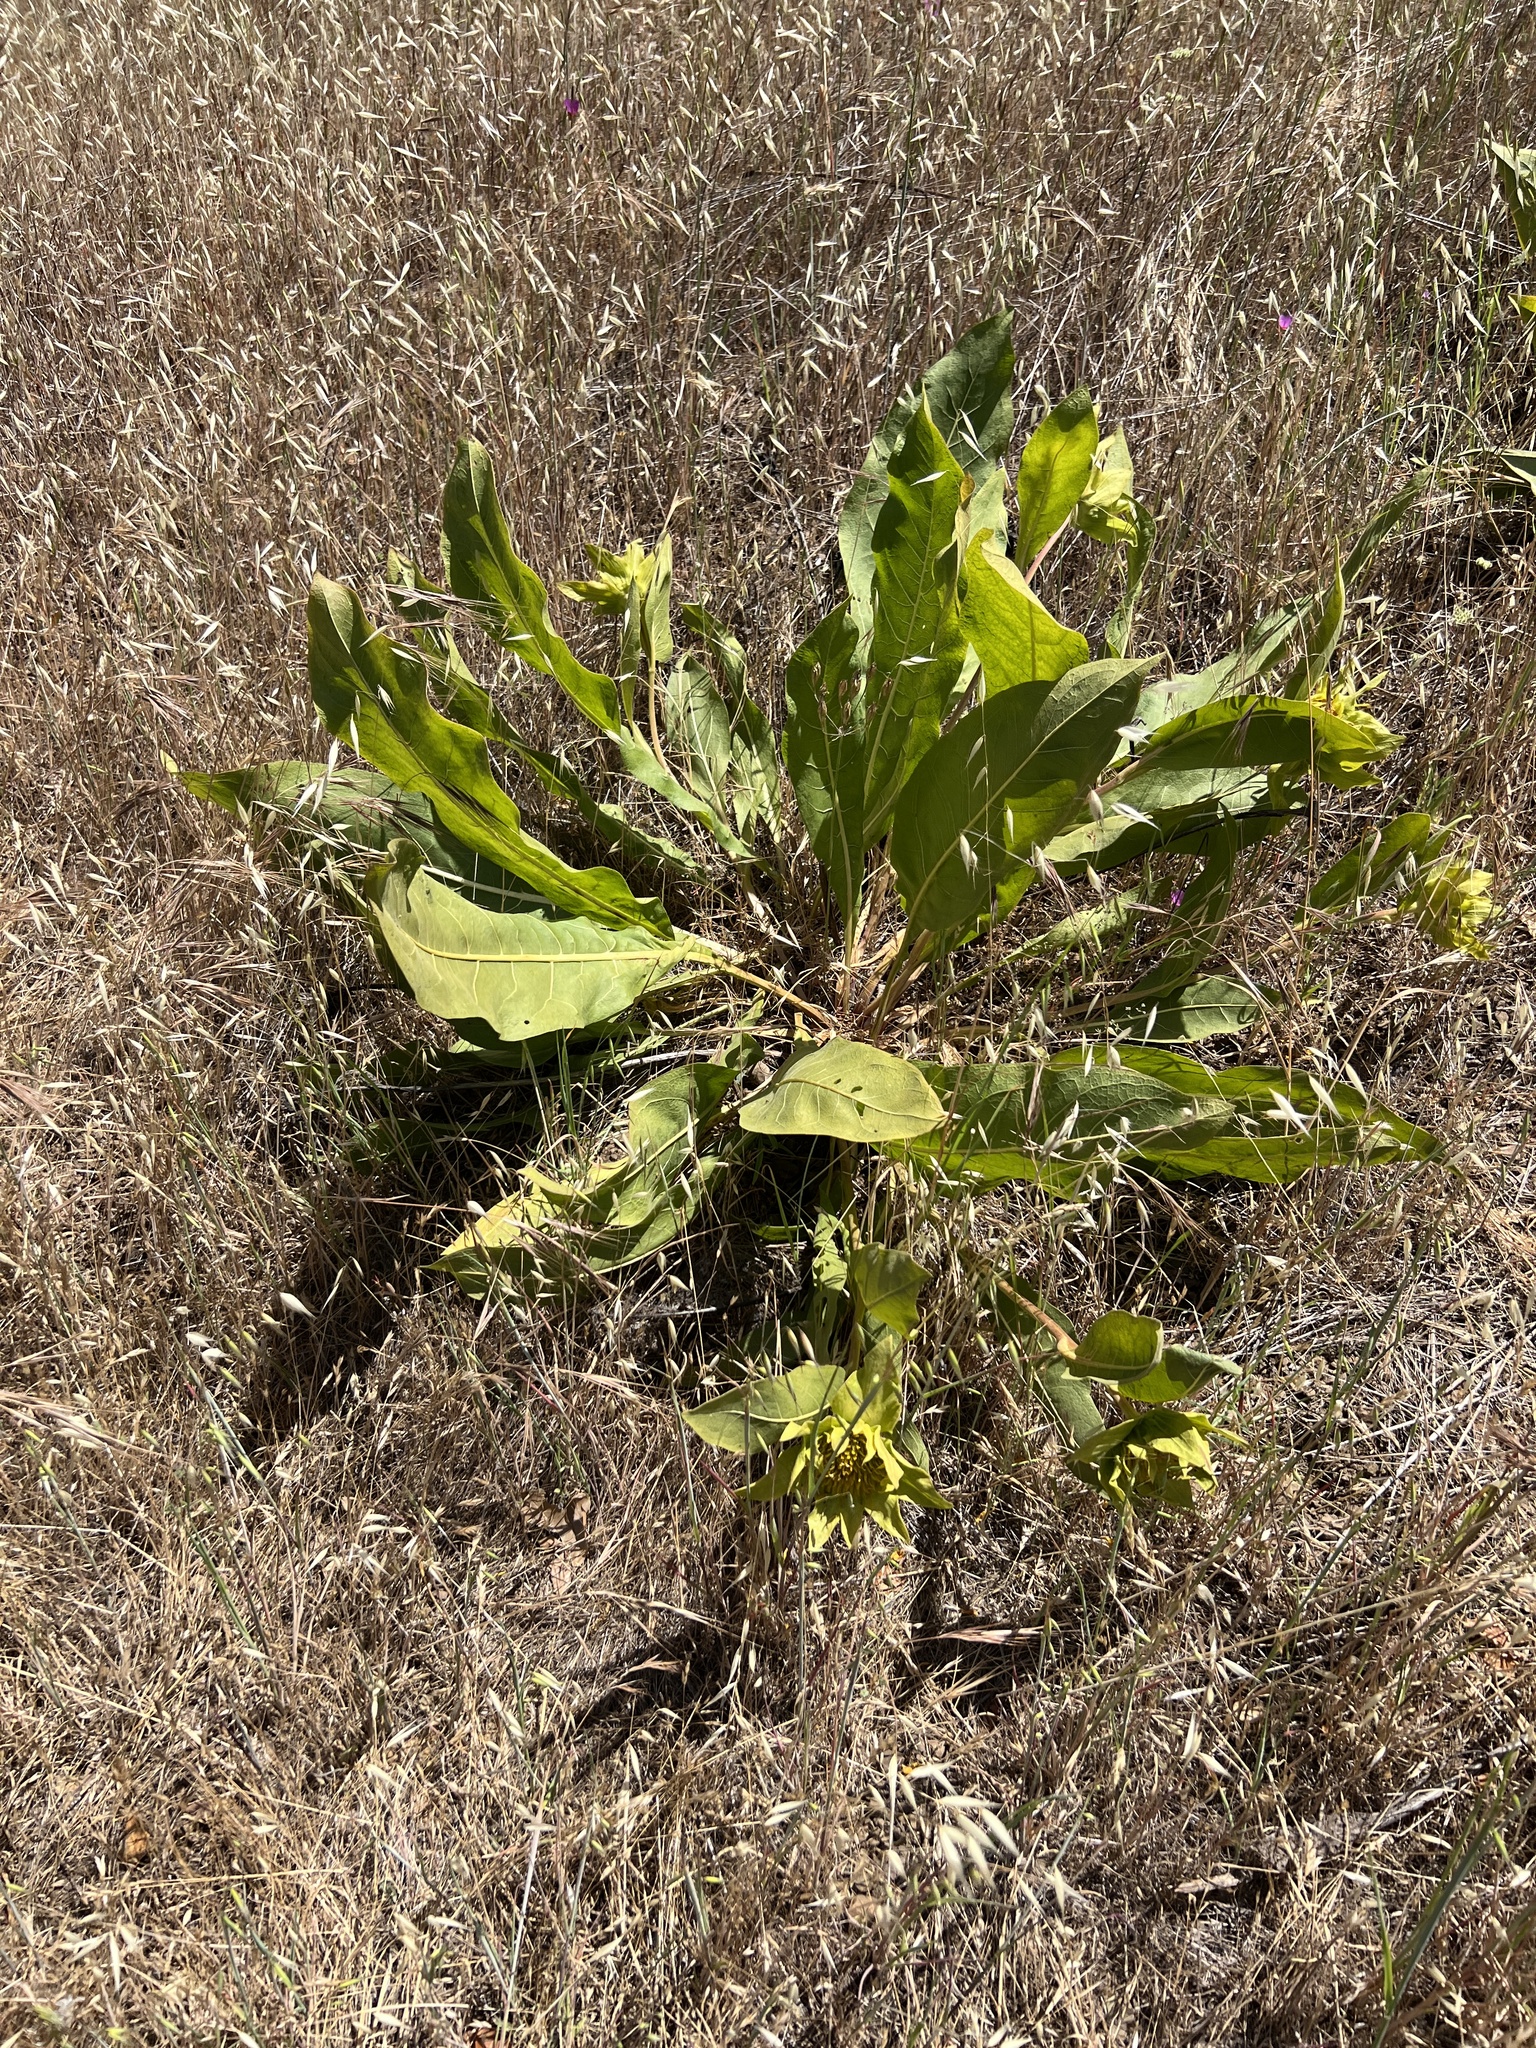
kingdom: Plantae
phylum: Tracheophyta
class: Magnoliopsida
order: Asterales
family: Asteraceae
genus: Wyethia
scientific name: Wyethia glabra
